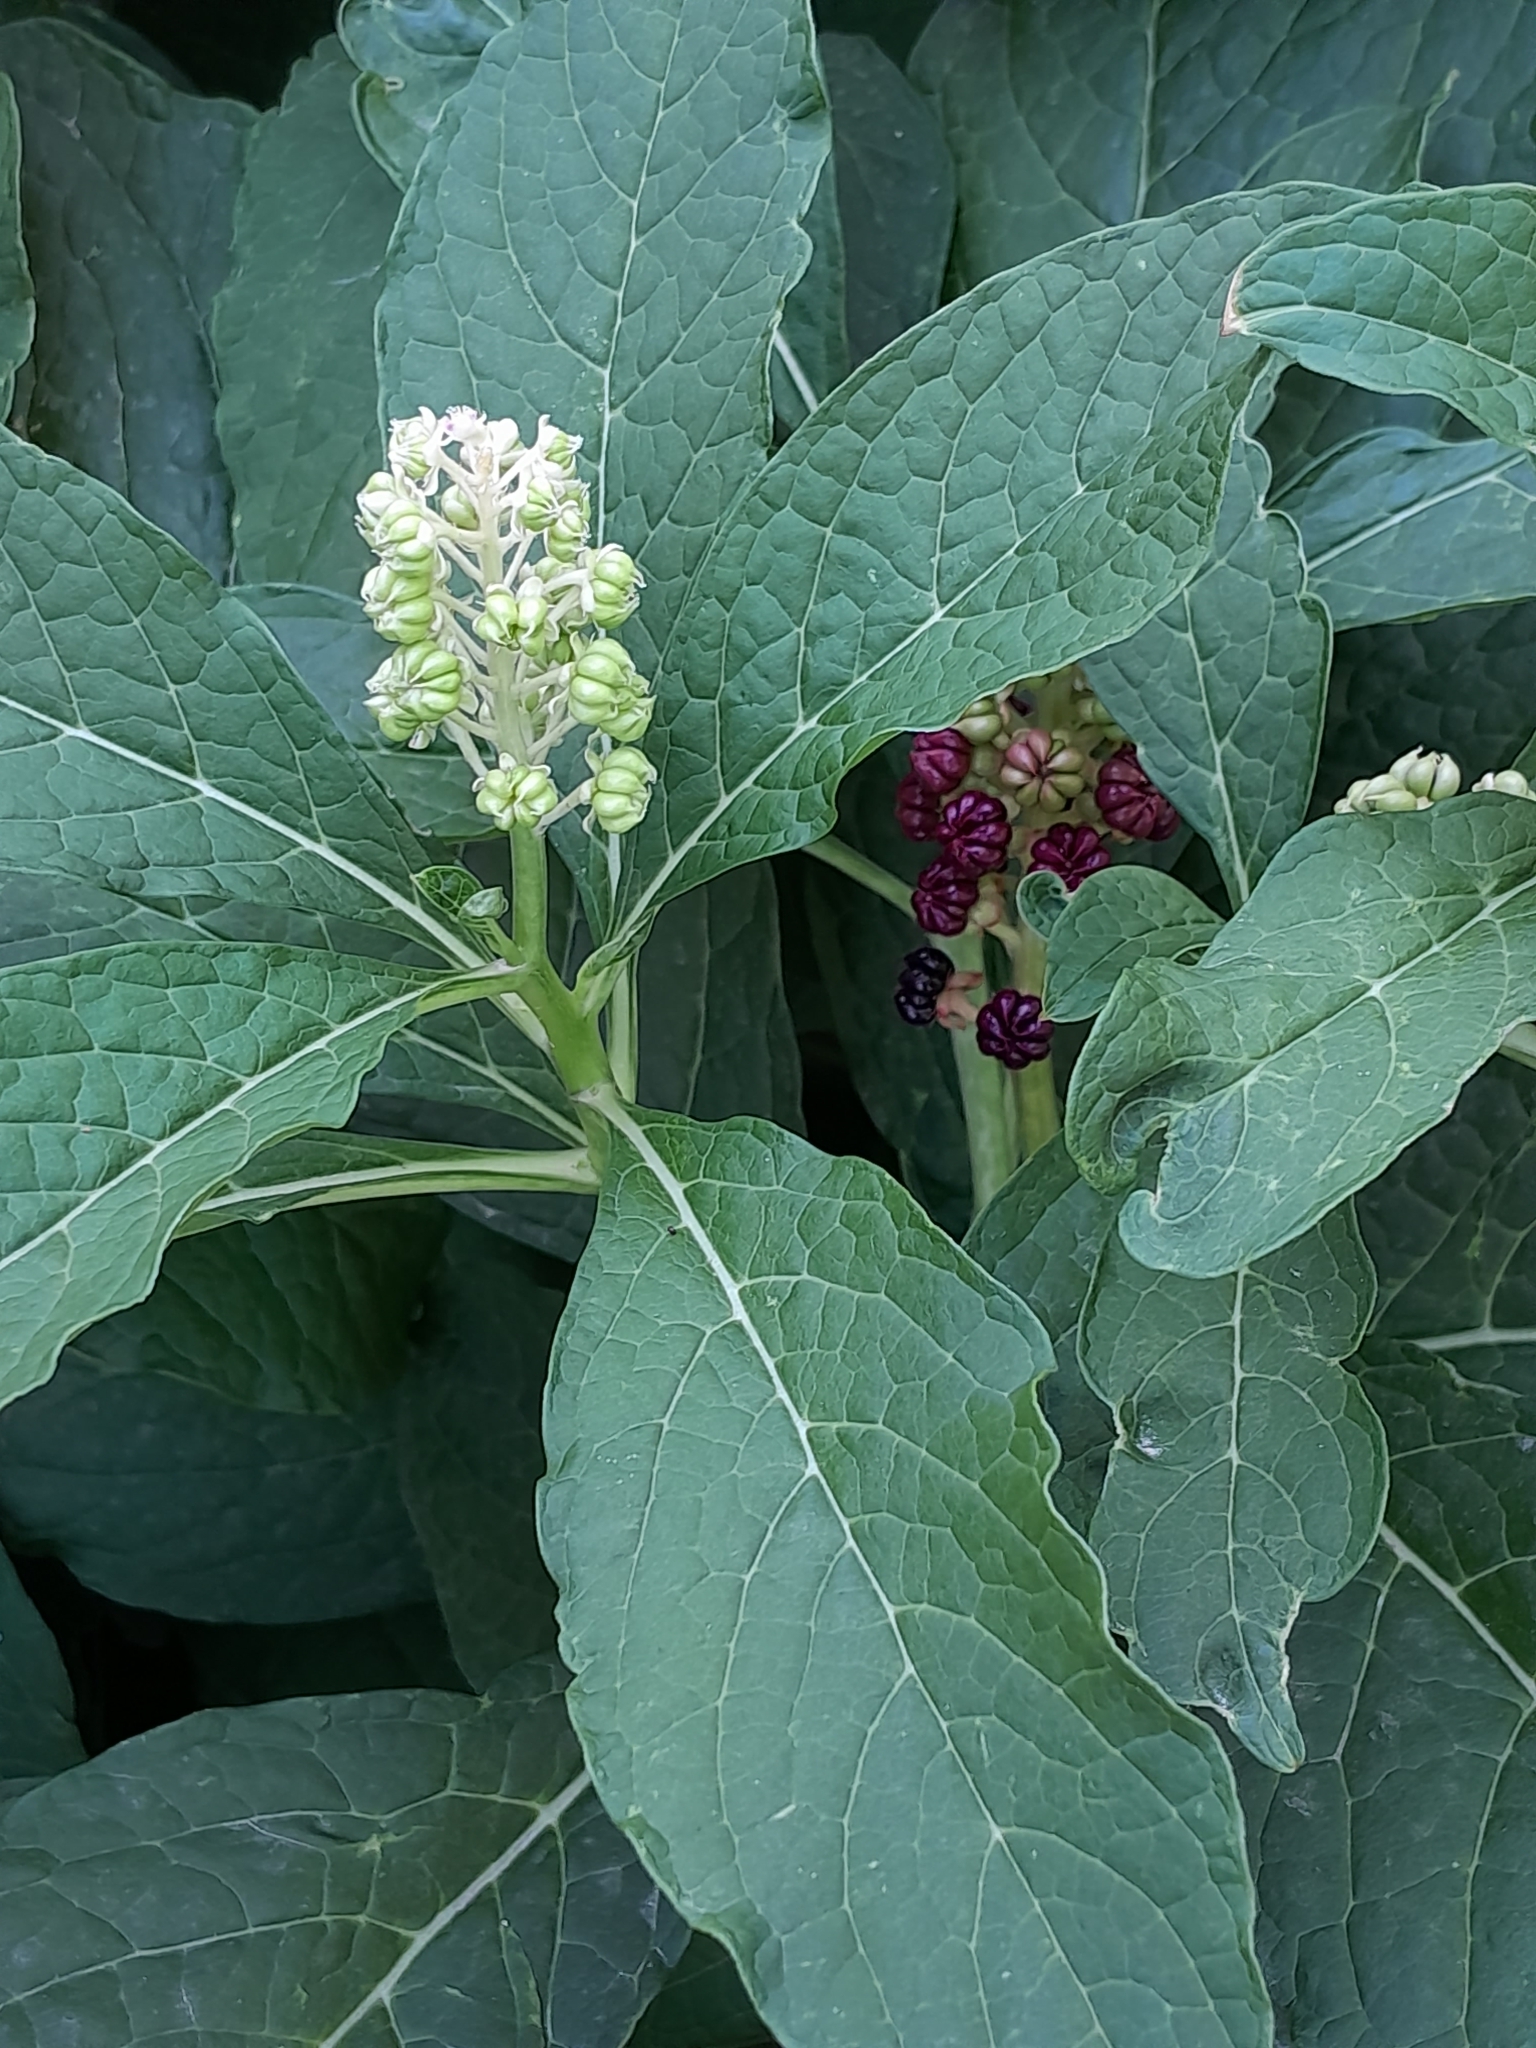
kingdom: Plantae
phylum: Tracheophyta
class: Magnoliopsida
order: Caryophyllales
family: Phytolaccaceae
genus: Phytolacca
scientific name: Phytolacca acinosa
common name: Indian pokeweed
